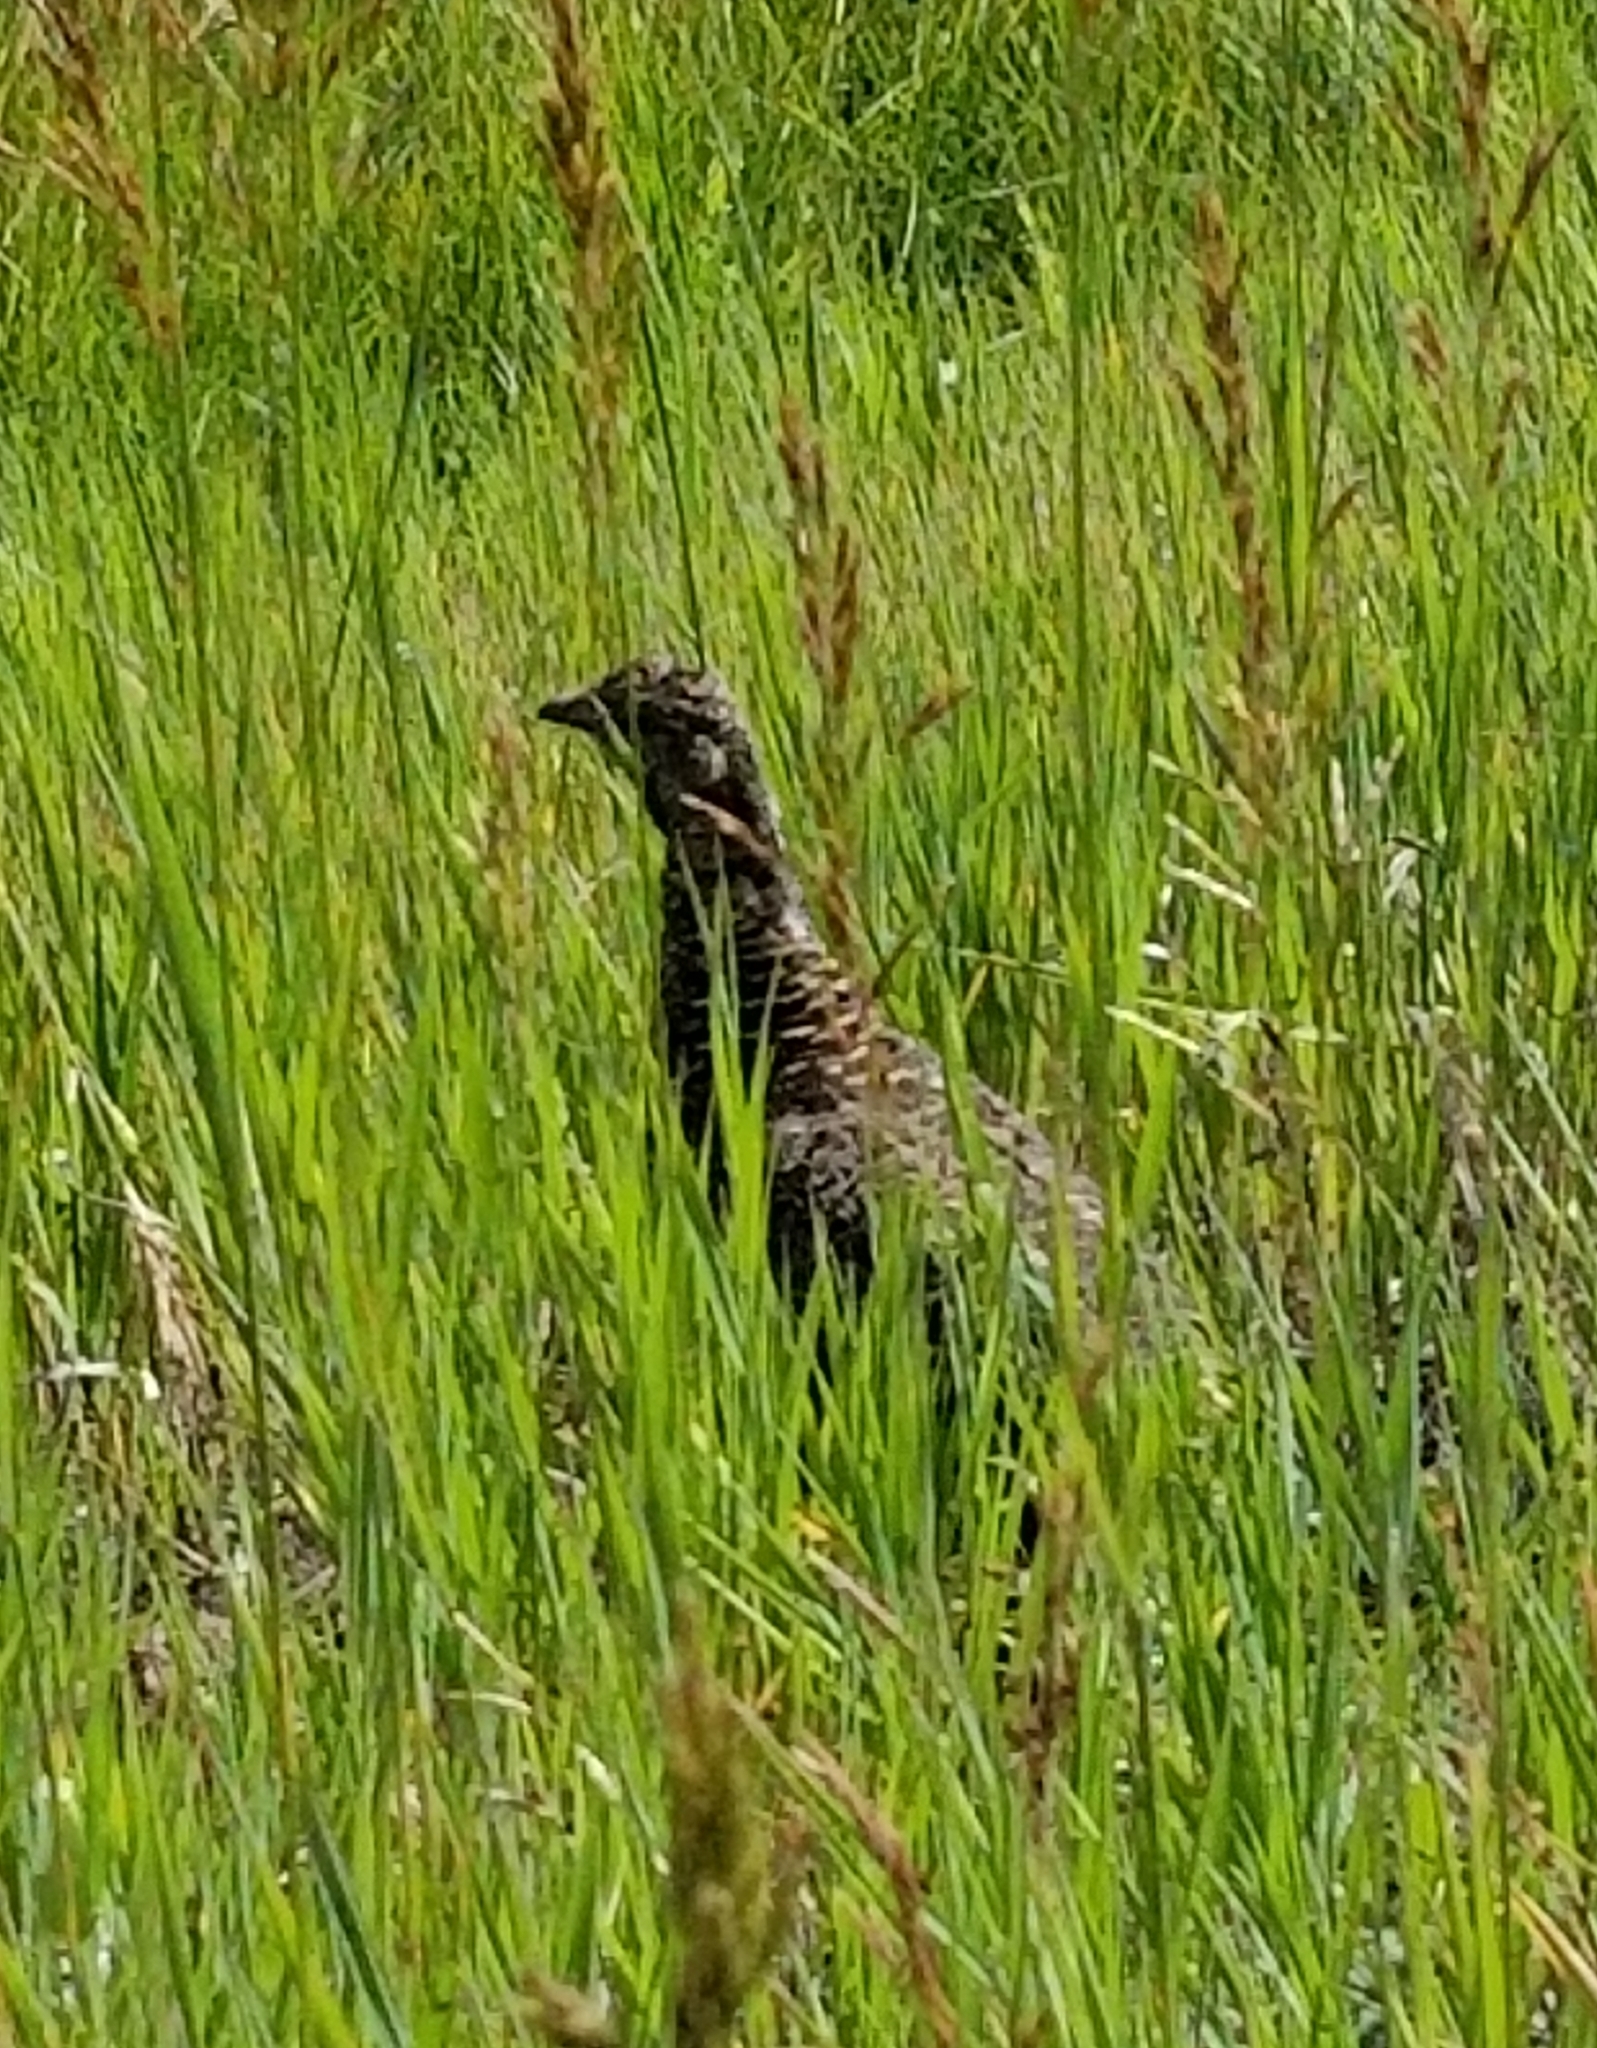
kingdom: Animalia
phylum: Chordata
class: Aves
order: Galliformes
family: Phasianidae
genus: Dendragapus
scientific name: Dendragapus obscurus
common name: Dusky grouse
